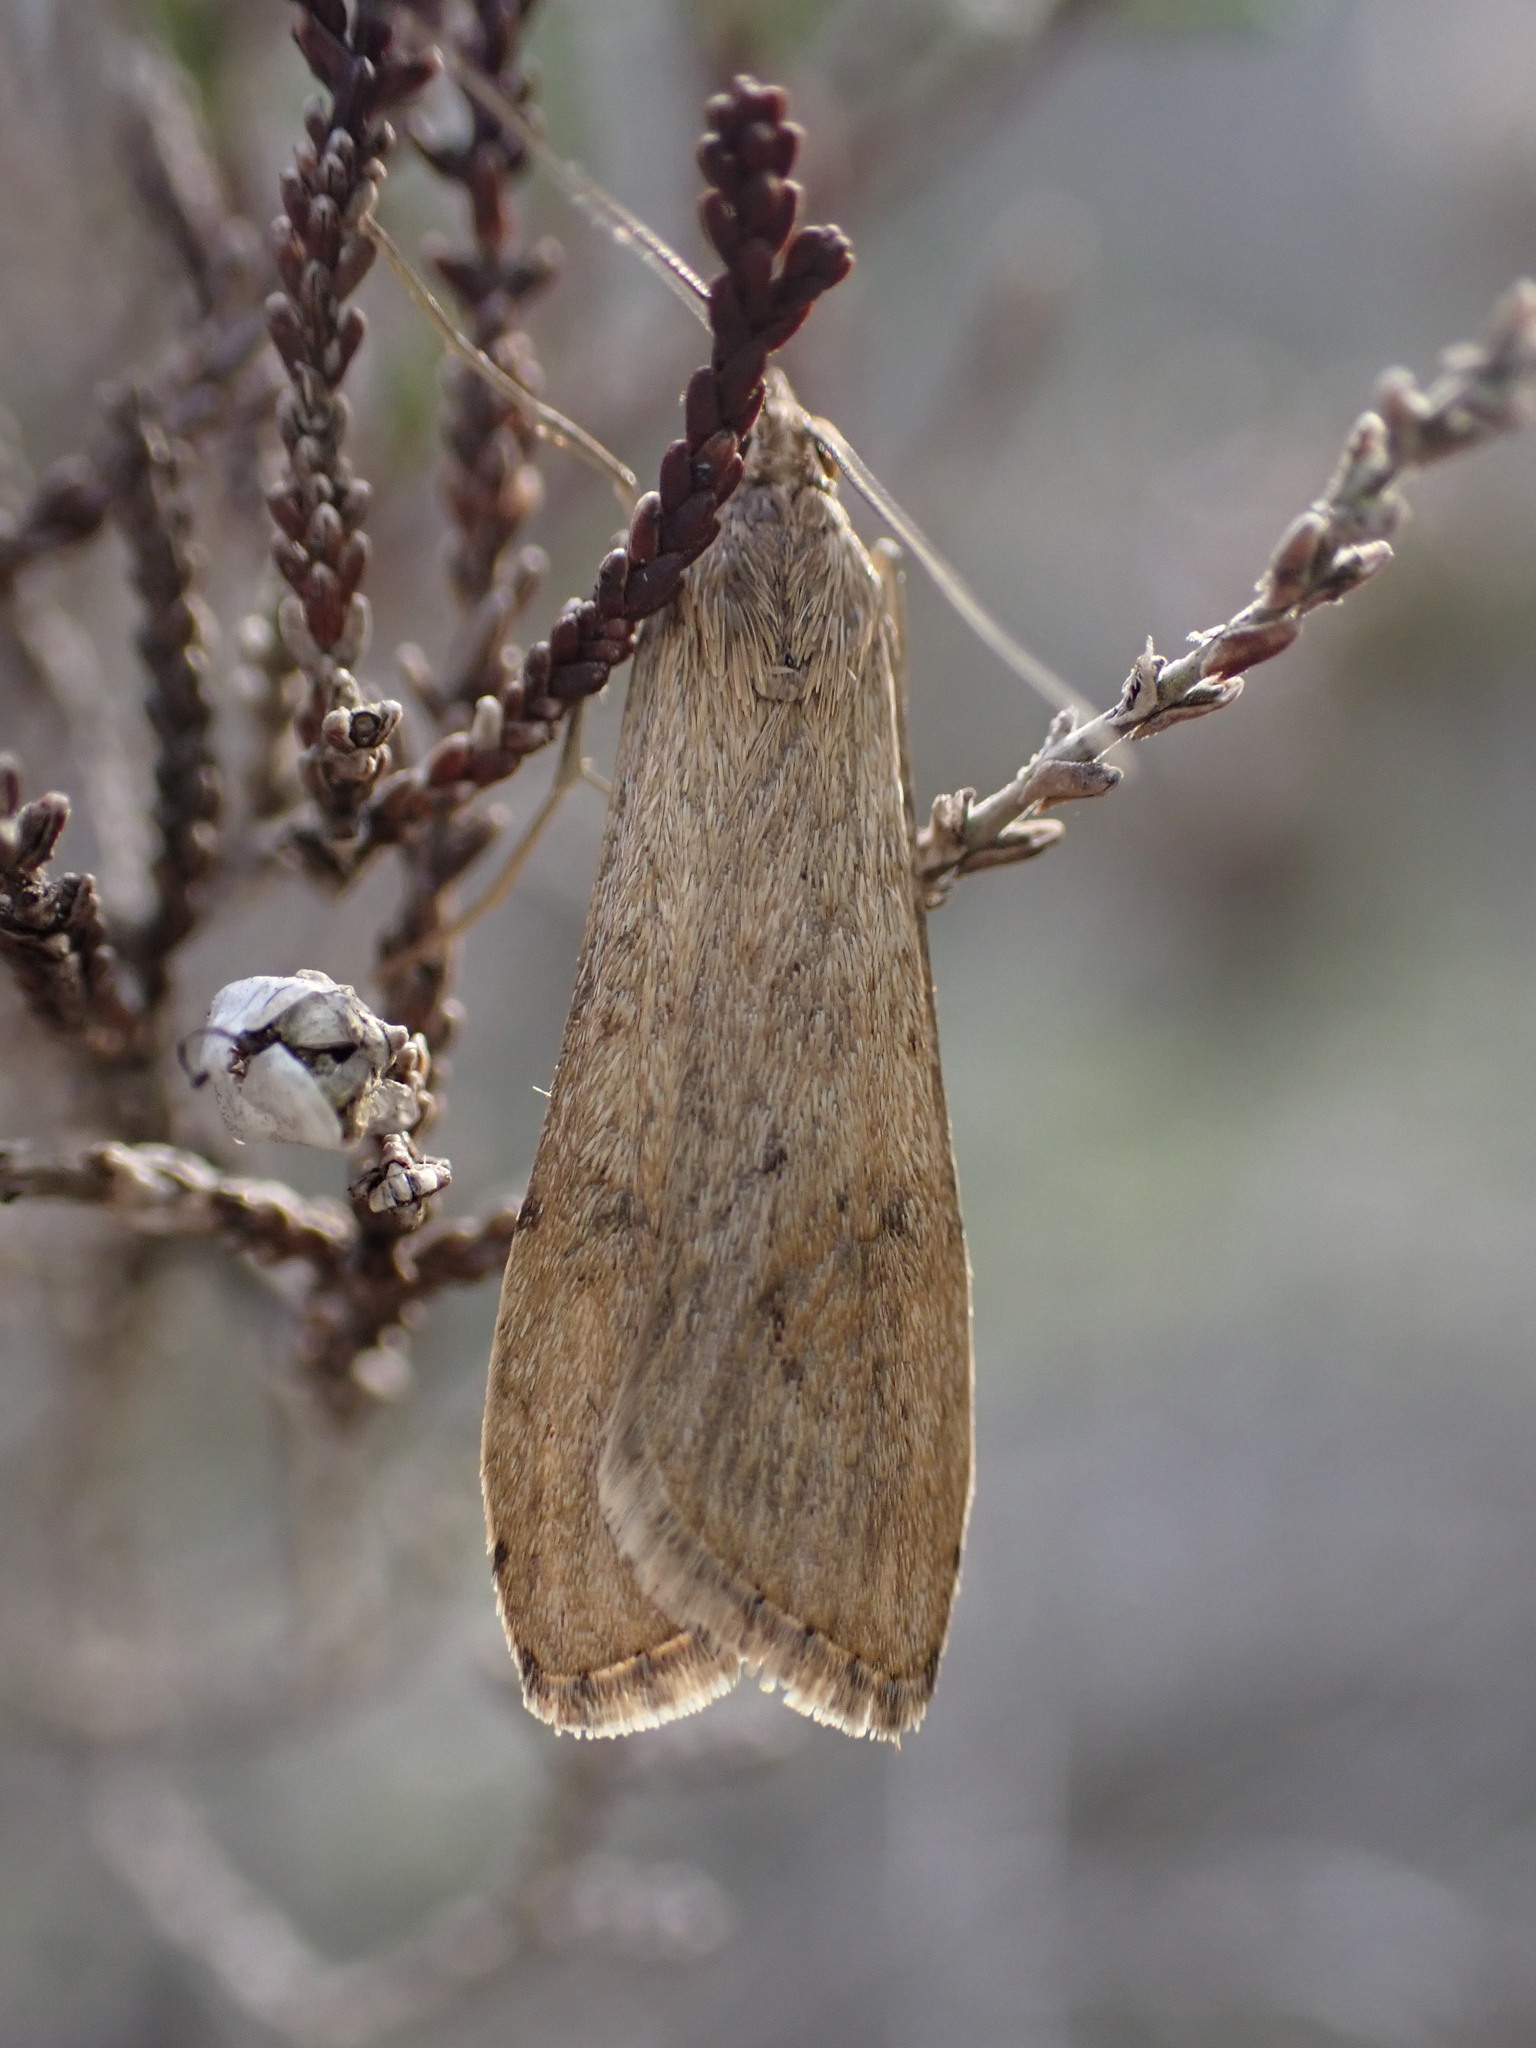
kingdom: Animalia
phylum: Arthropoda
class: Insecta
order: Lepidoptera
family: Crambidae
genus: Nomophila
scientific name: Nomophila noctuella
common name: Rush veneer
